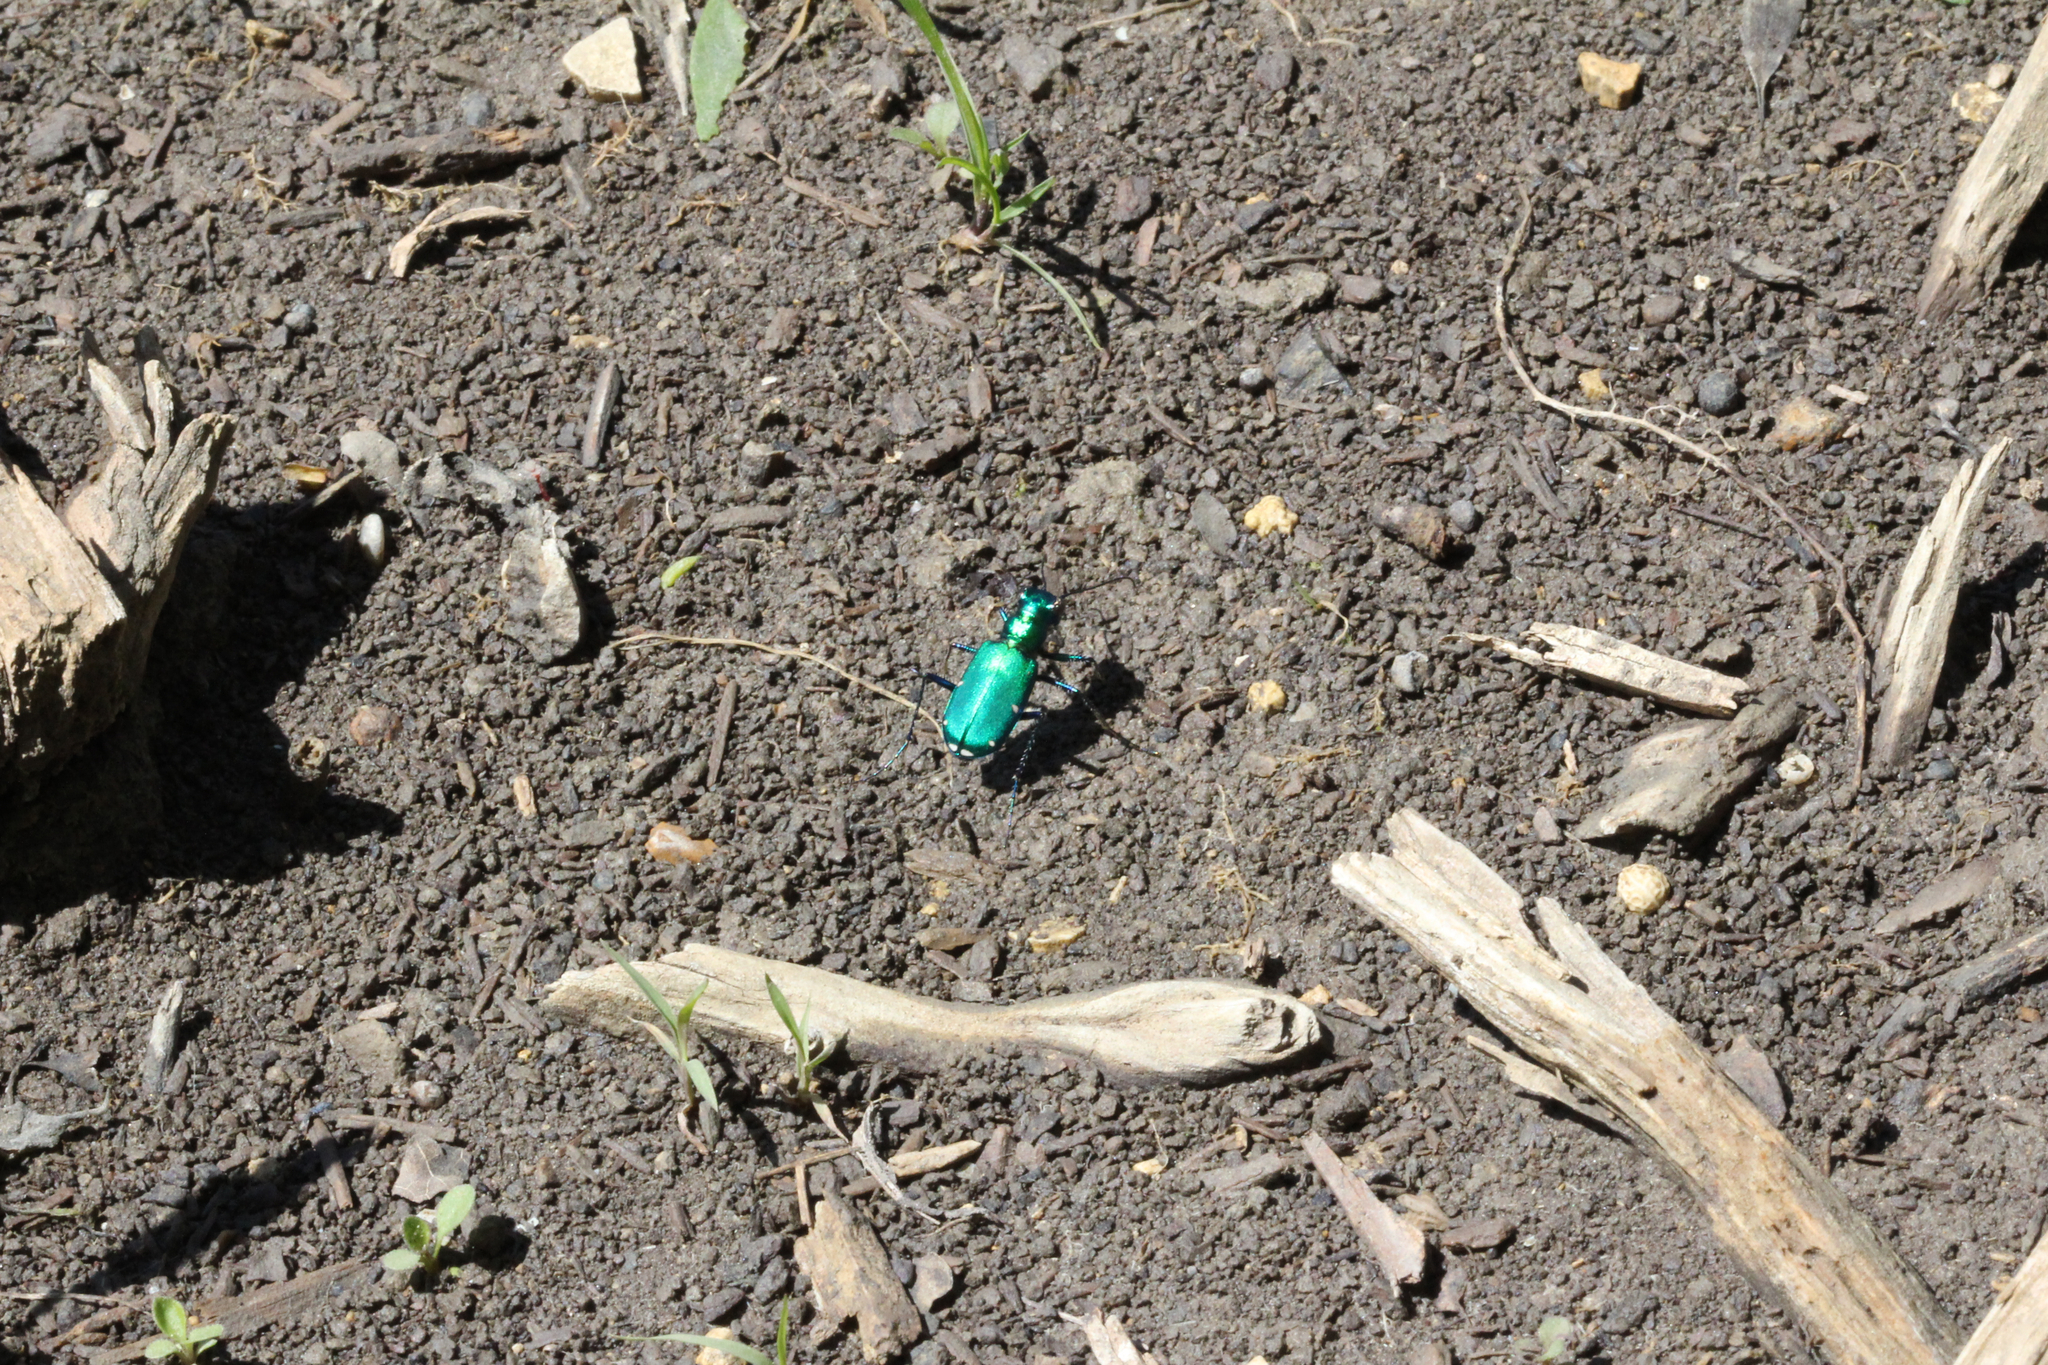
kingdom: Animalia
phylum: Arthropoda
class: Insecta
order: Coleoptera
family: Carabidae
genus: Cicindela
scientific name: Cicindela sexguttata
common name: Six-spotted tiger beetle
